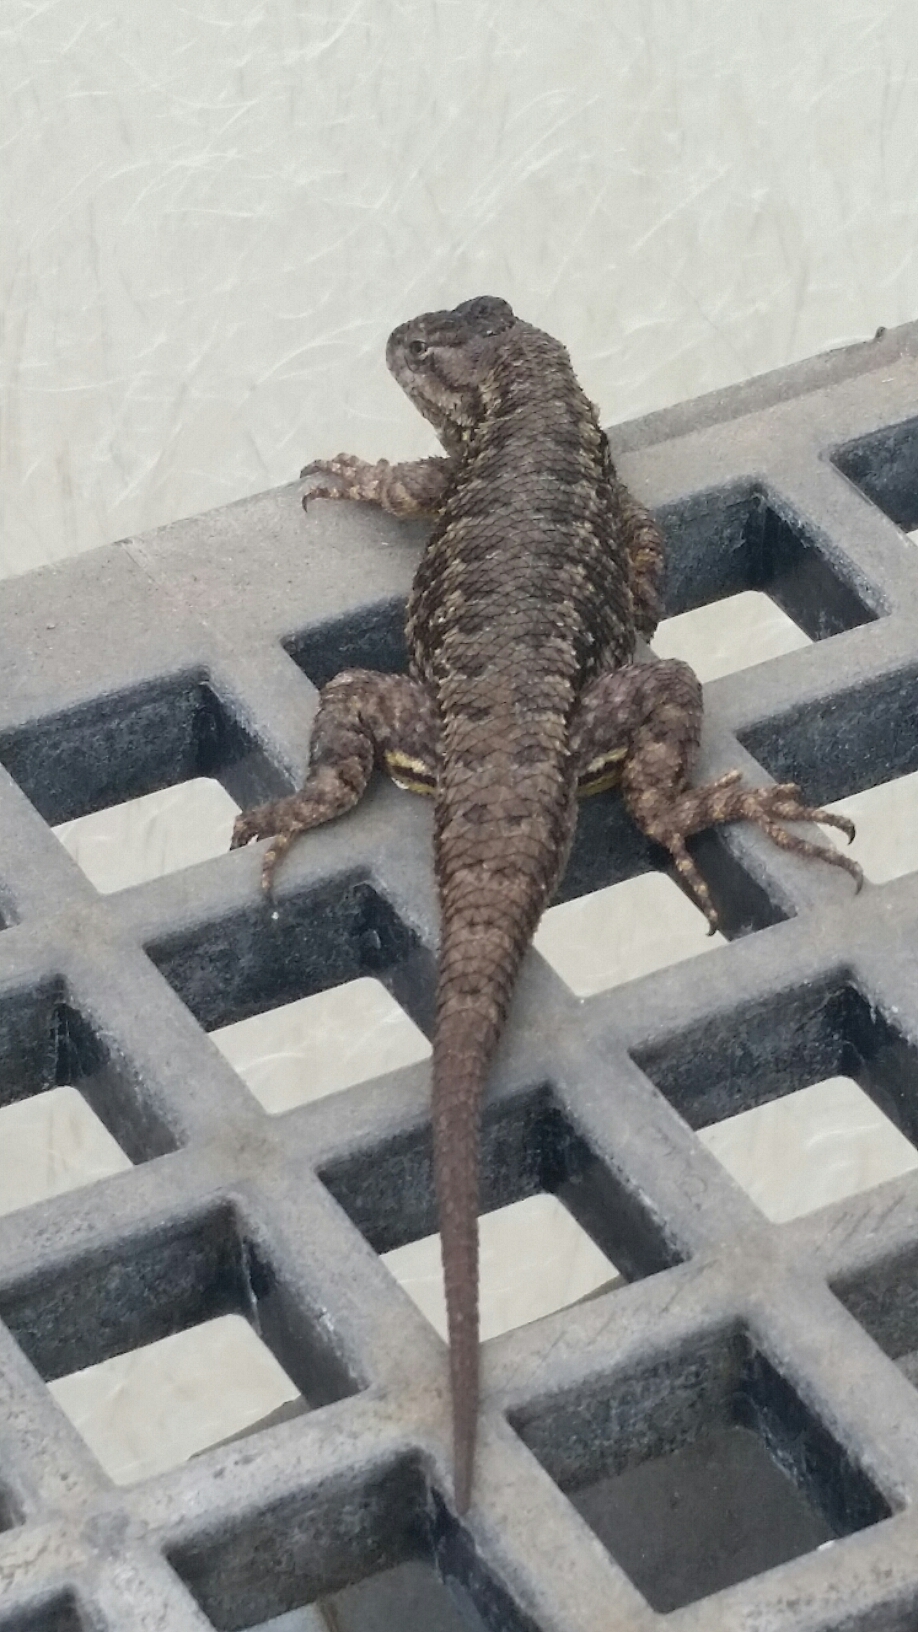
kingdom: Animalia
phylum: Chordata
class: Squamata
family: Phrynosomatidae
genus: Sceloporus
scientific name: Sceloporus occidentalis
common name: Western fence lizard
